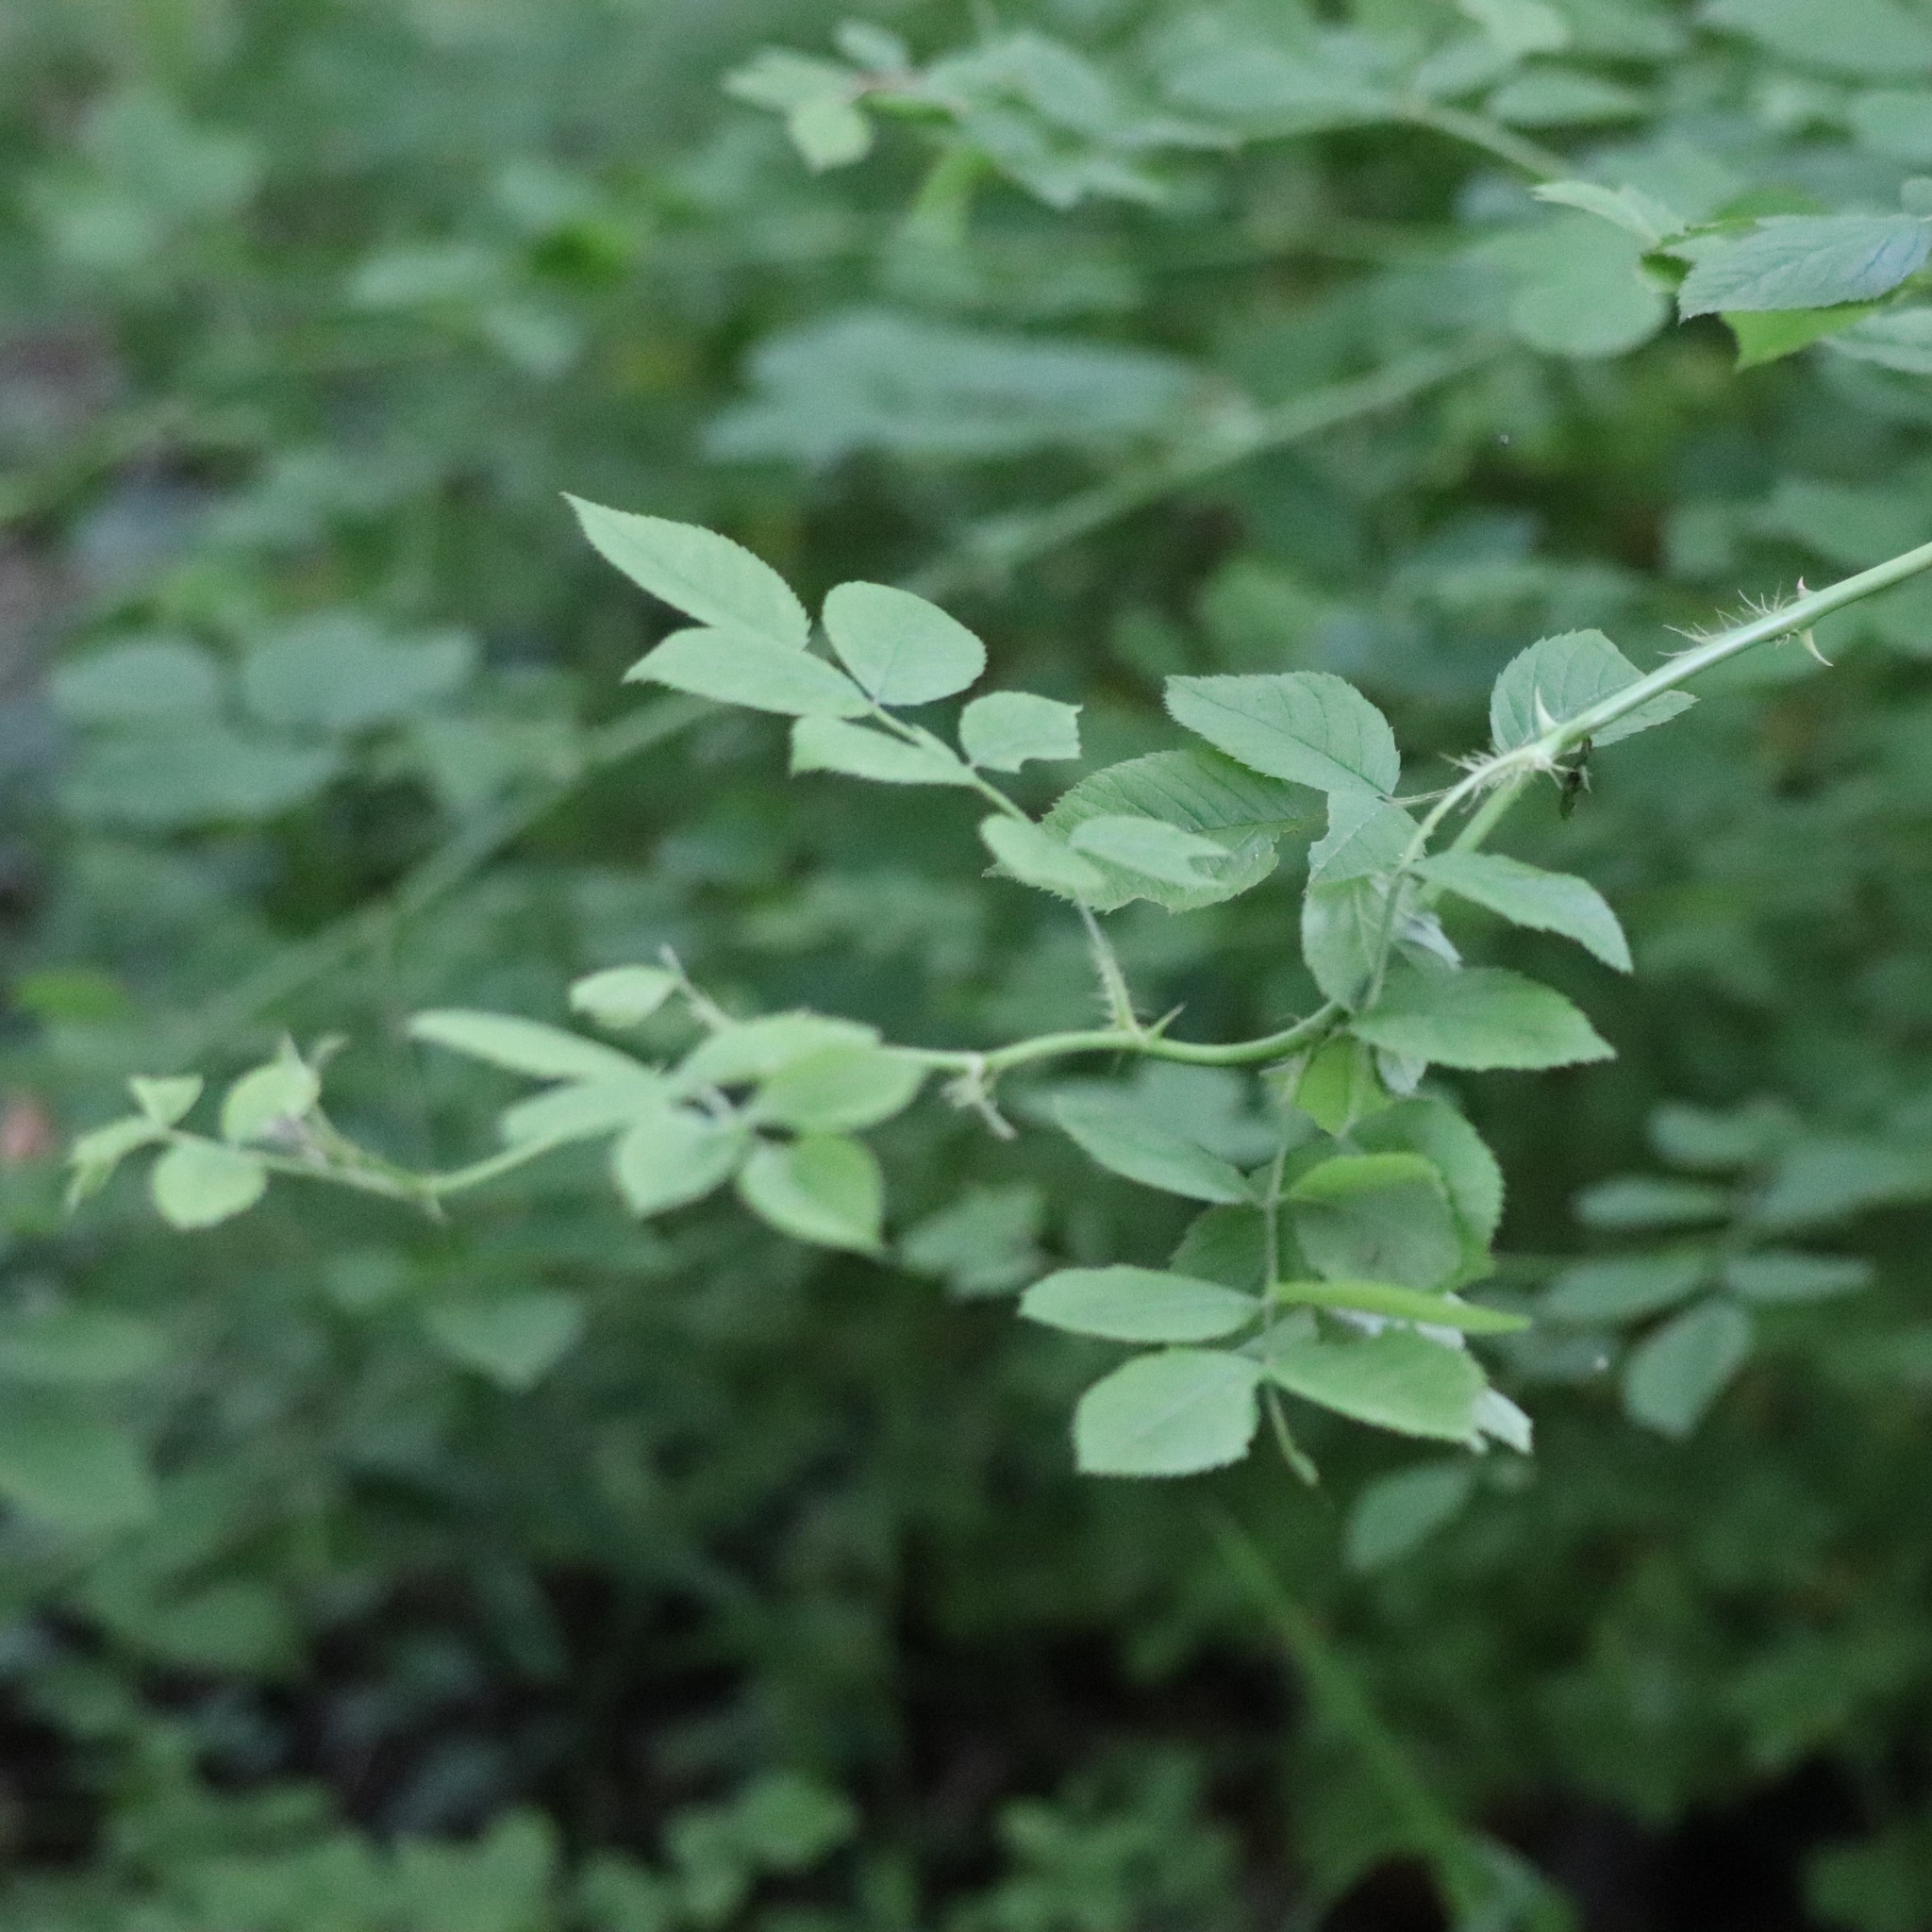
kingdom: Plantae
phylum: Tracheophyta
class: Magnoliopsida
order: Rosales
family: Rosaceae
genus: Rosa
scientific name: Rosa multiflora
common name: Multiflora rose
